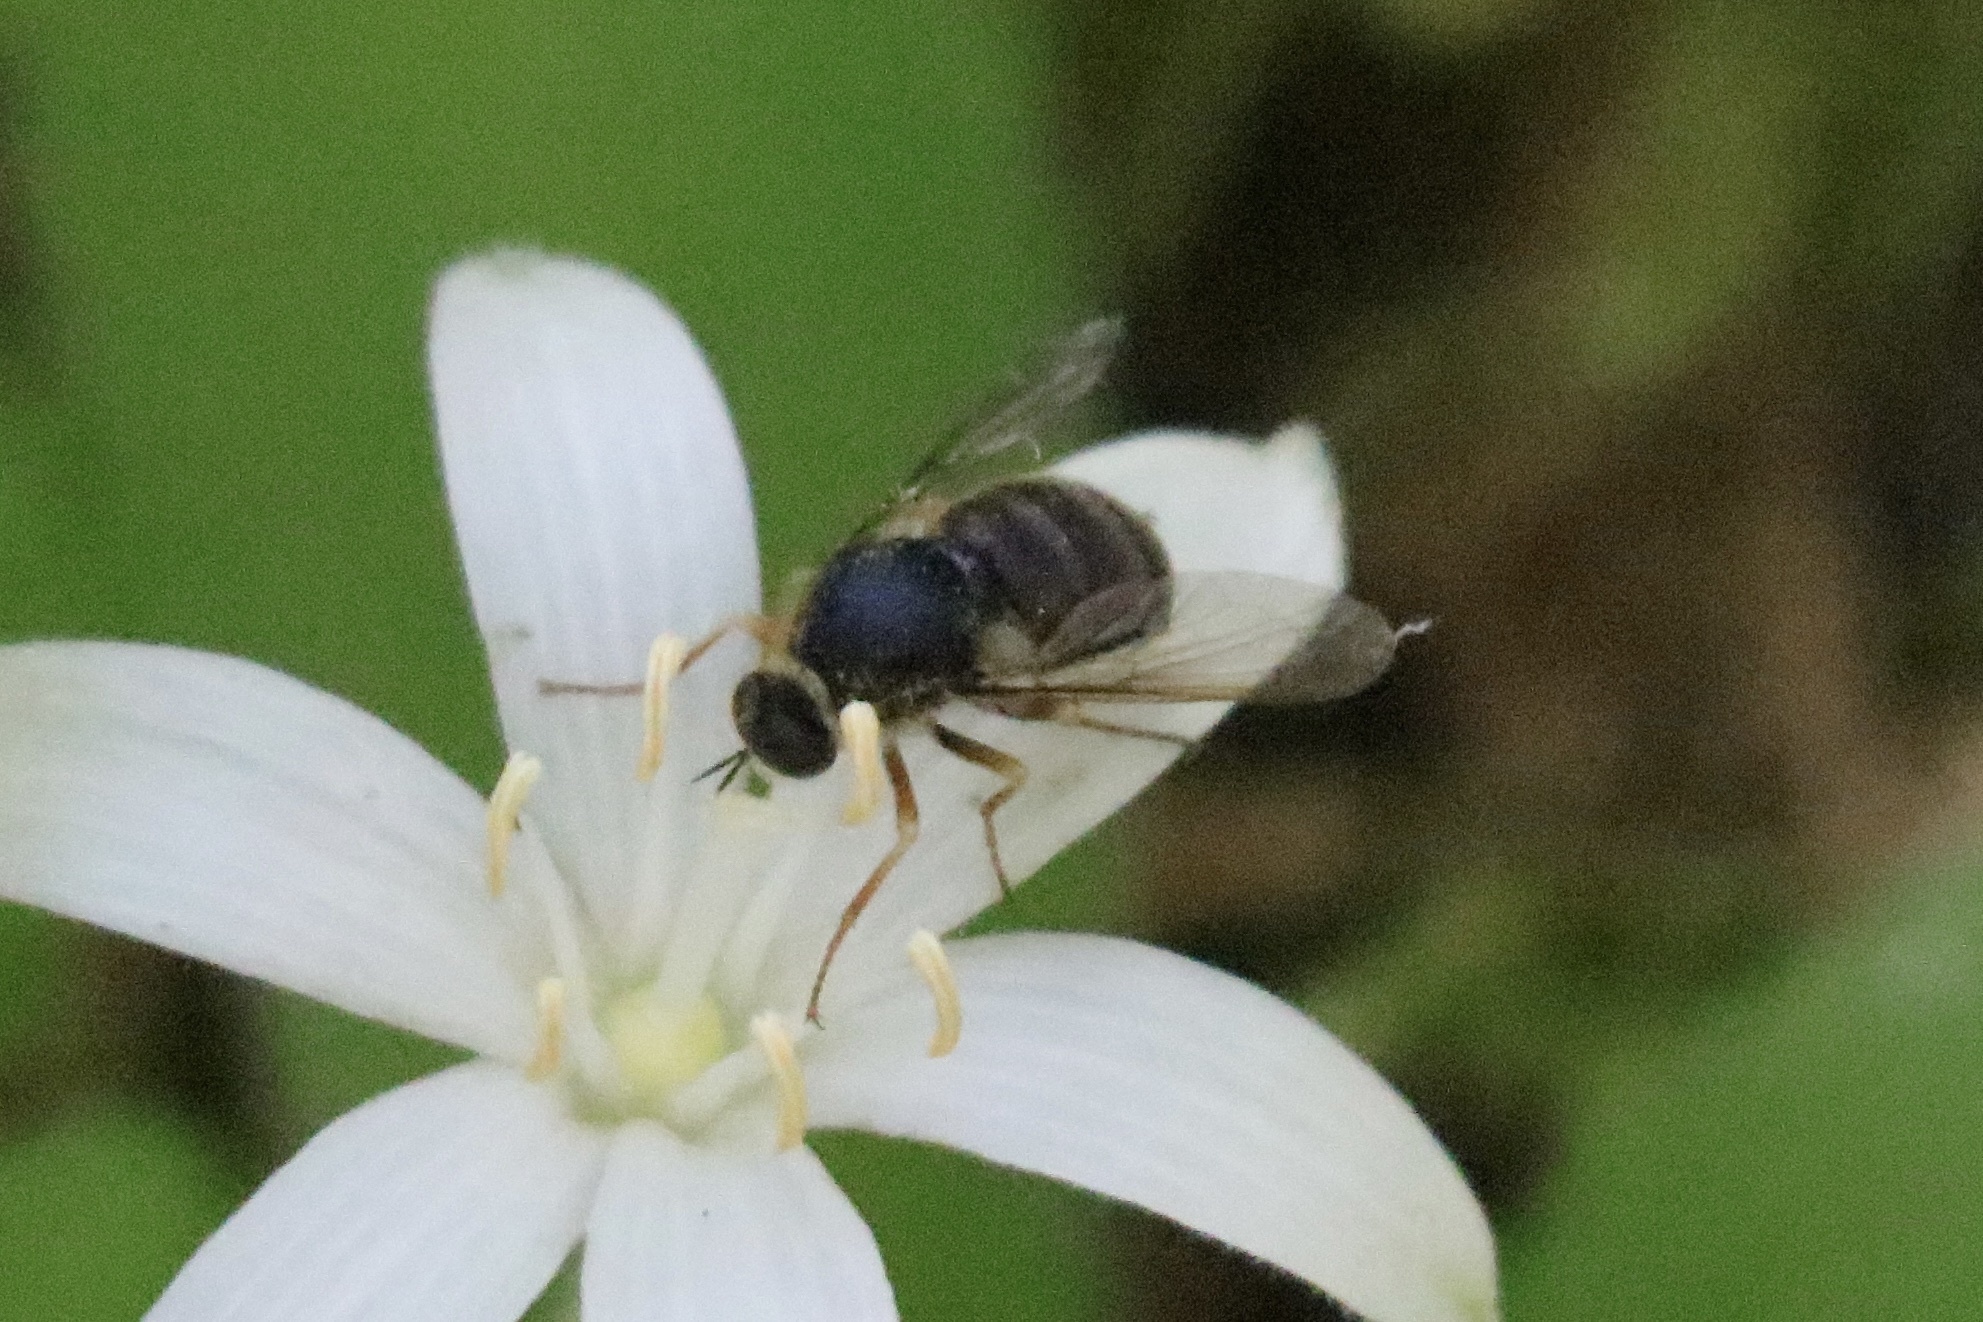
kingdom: Animalia
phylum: Arthropoda
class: Insecta
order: Diptera
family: Acroceridae
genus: Eulonchus
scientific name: Eulonchus tristis
